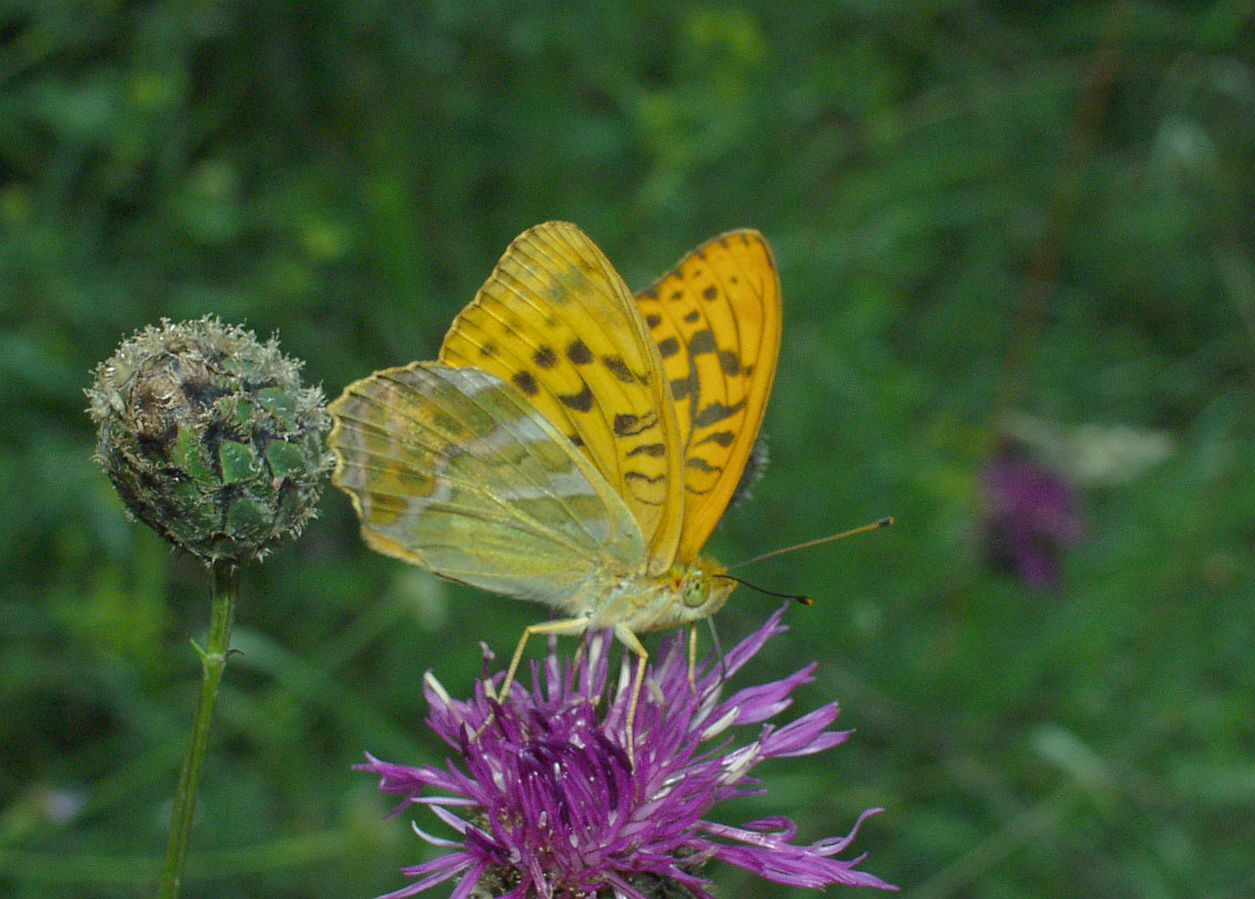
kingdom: Animalia
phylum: Arthropoda
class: Insecta
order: Lepidoptera
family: Nymphalidae
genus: Argynnis
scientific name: Argynnis paphia
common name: Silver-washed fritillary
